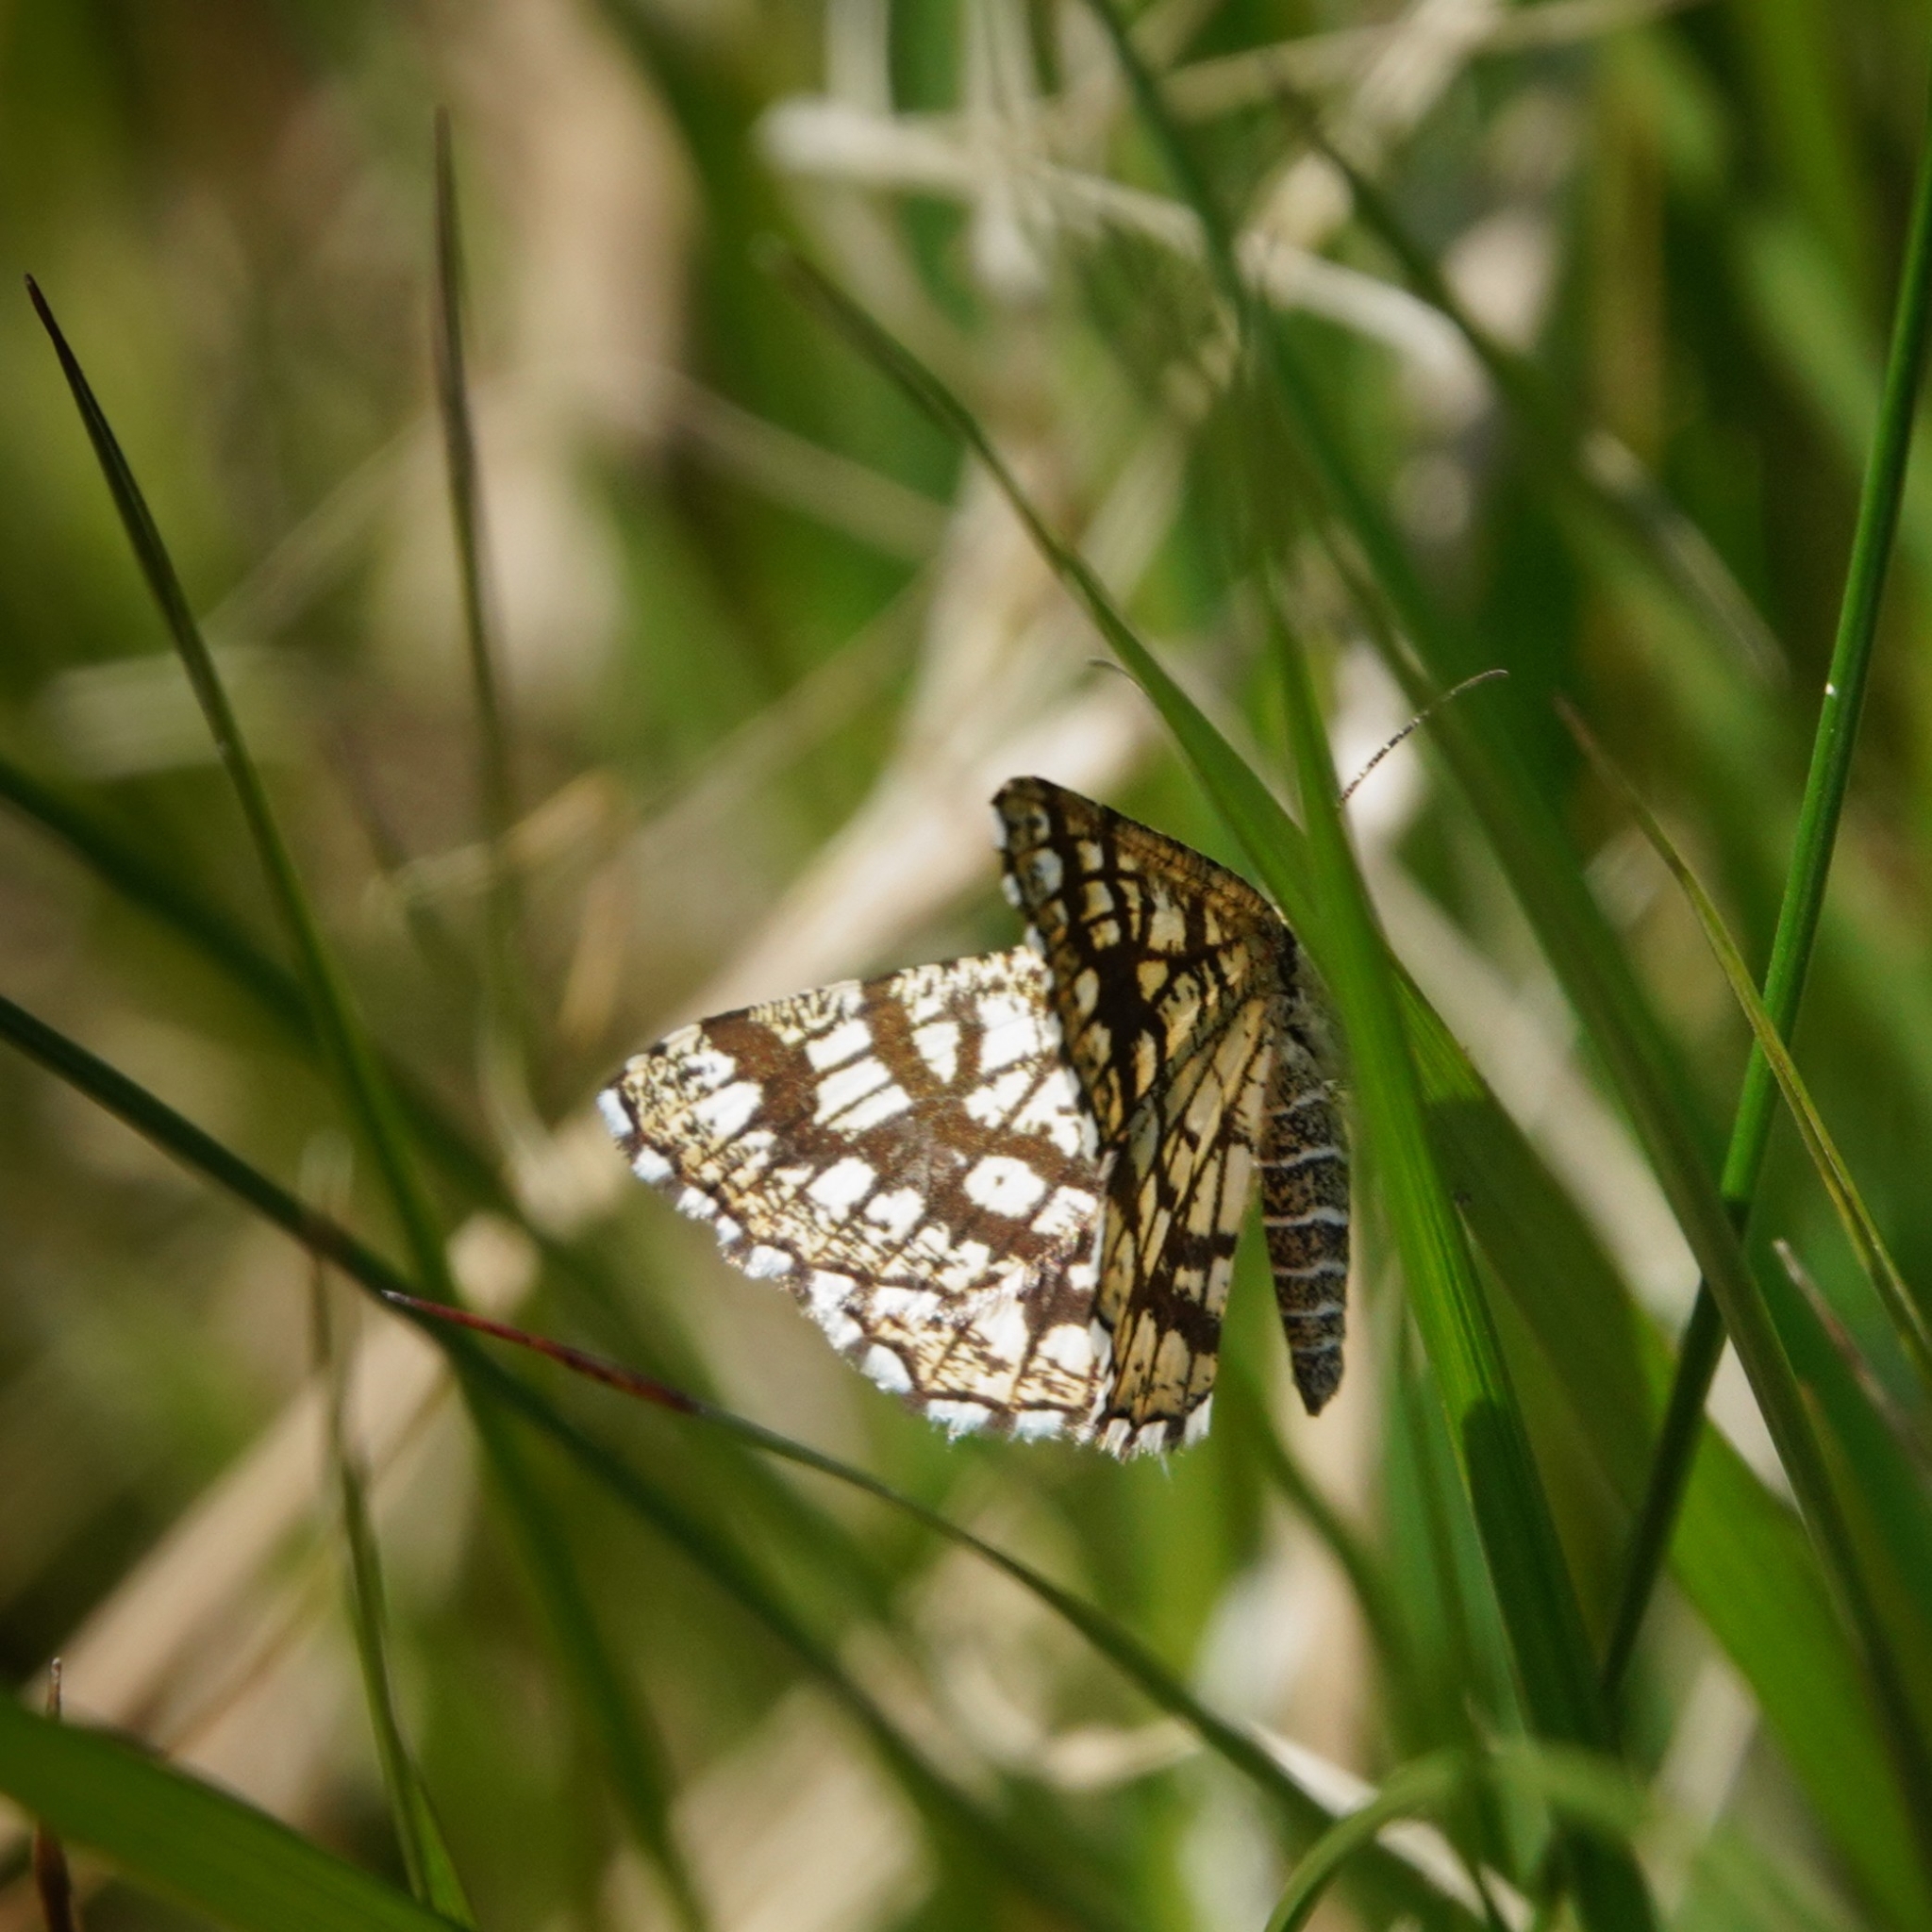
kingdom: Animalia
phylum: Arthropoda
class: Insecta
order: Lepidoptera
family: Geometridae
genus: Chiasmia
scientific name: Chiasmia clathrata
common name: Latticed heath
